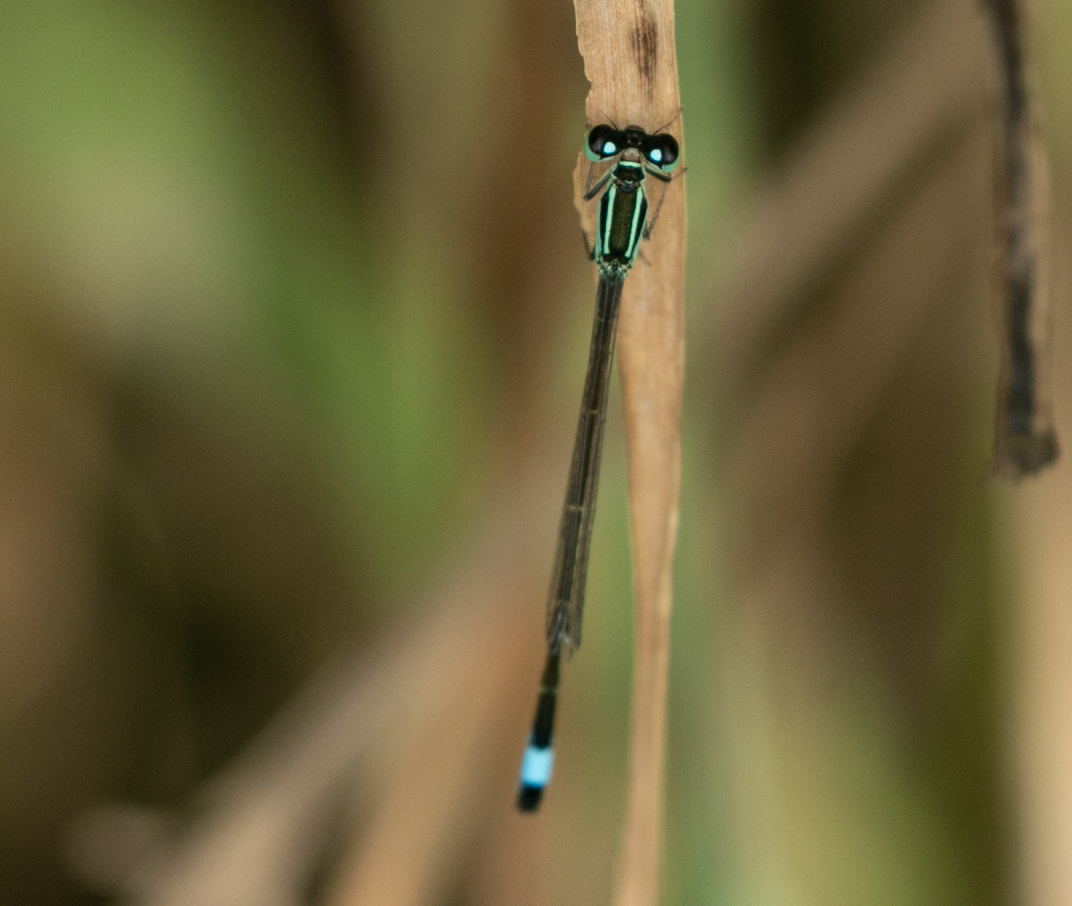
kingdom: Animalia
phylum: Arthropoda
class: Insecta
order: Odonata
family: Coenagrionidae
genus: Ischnura
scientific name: Ischnura elegans
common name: Blue-tailed damselfly
